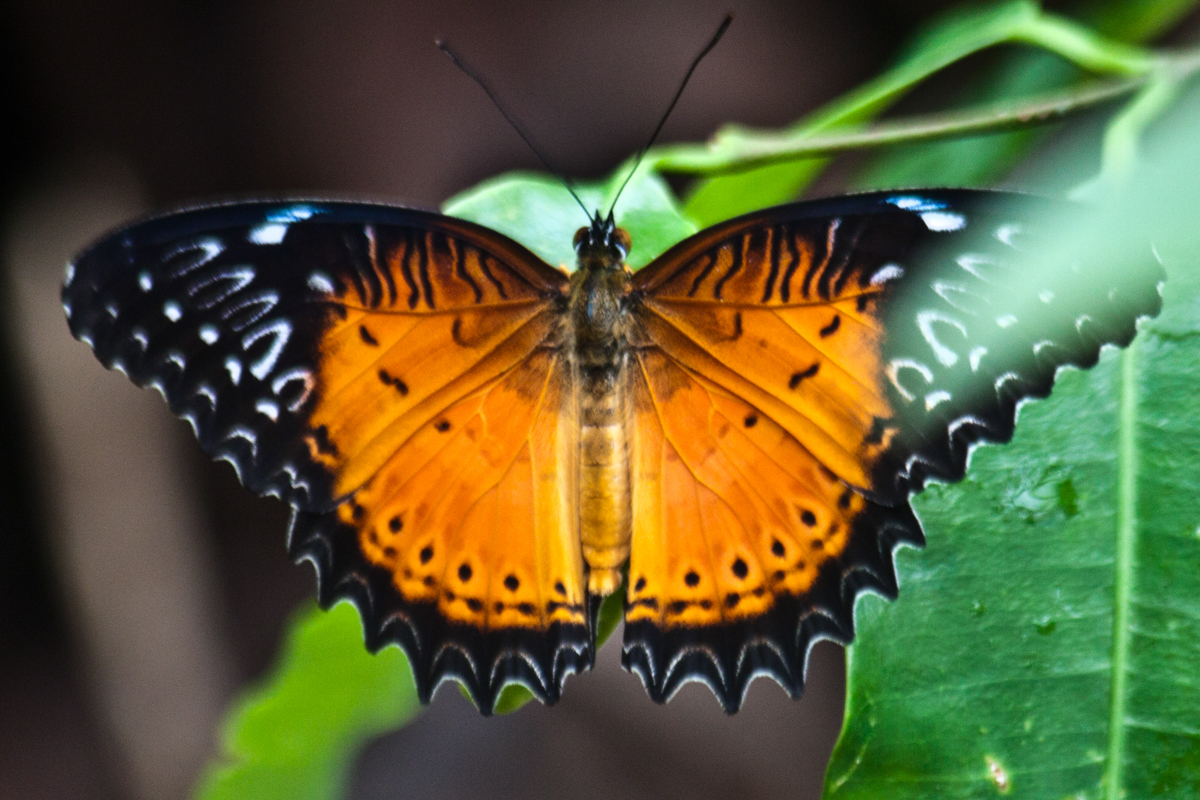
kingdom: Animalia
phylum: Arthropoda
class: Insecta
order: Lepidoptera
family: Nymphalidae
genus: Cethosia
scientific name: Cethosia biblis
